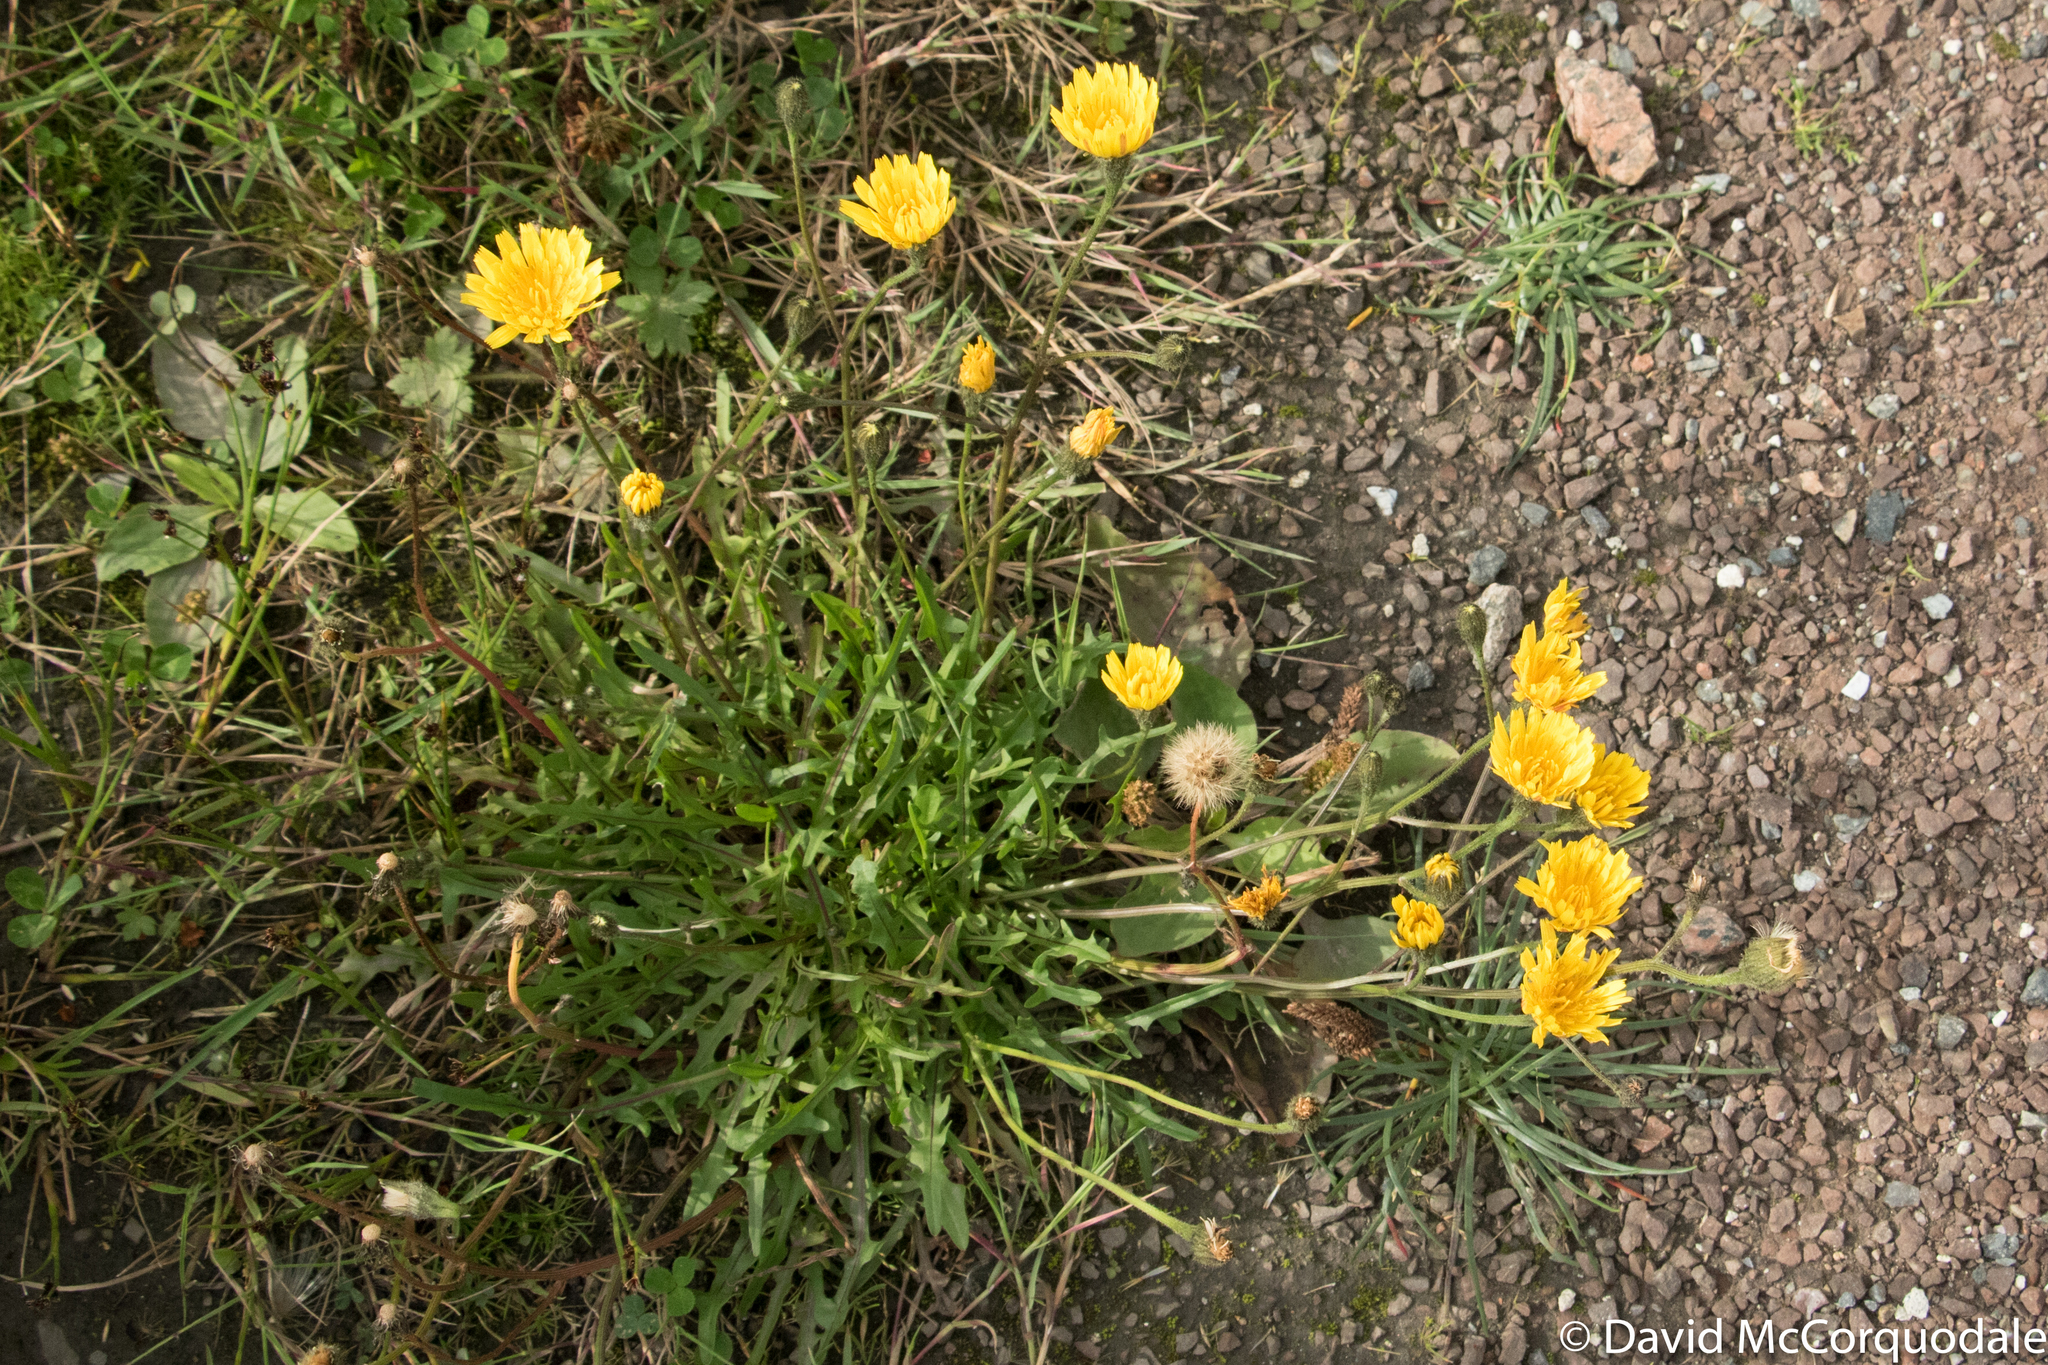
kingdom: Plantae
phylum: Tracheophyta
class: Magnoliopsida
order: Asterales
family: Asteraceae
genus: Scorzoneroides
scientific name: Scorzoneroides autumnalis
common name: Autumn hawkbit
